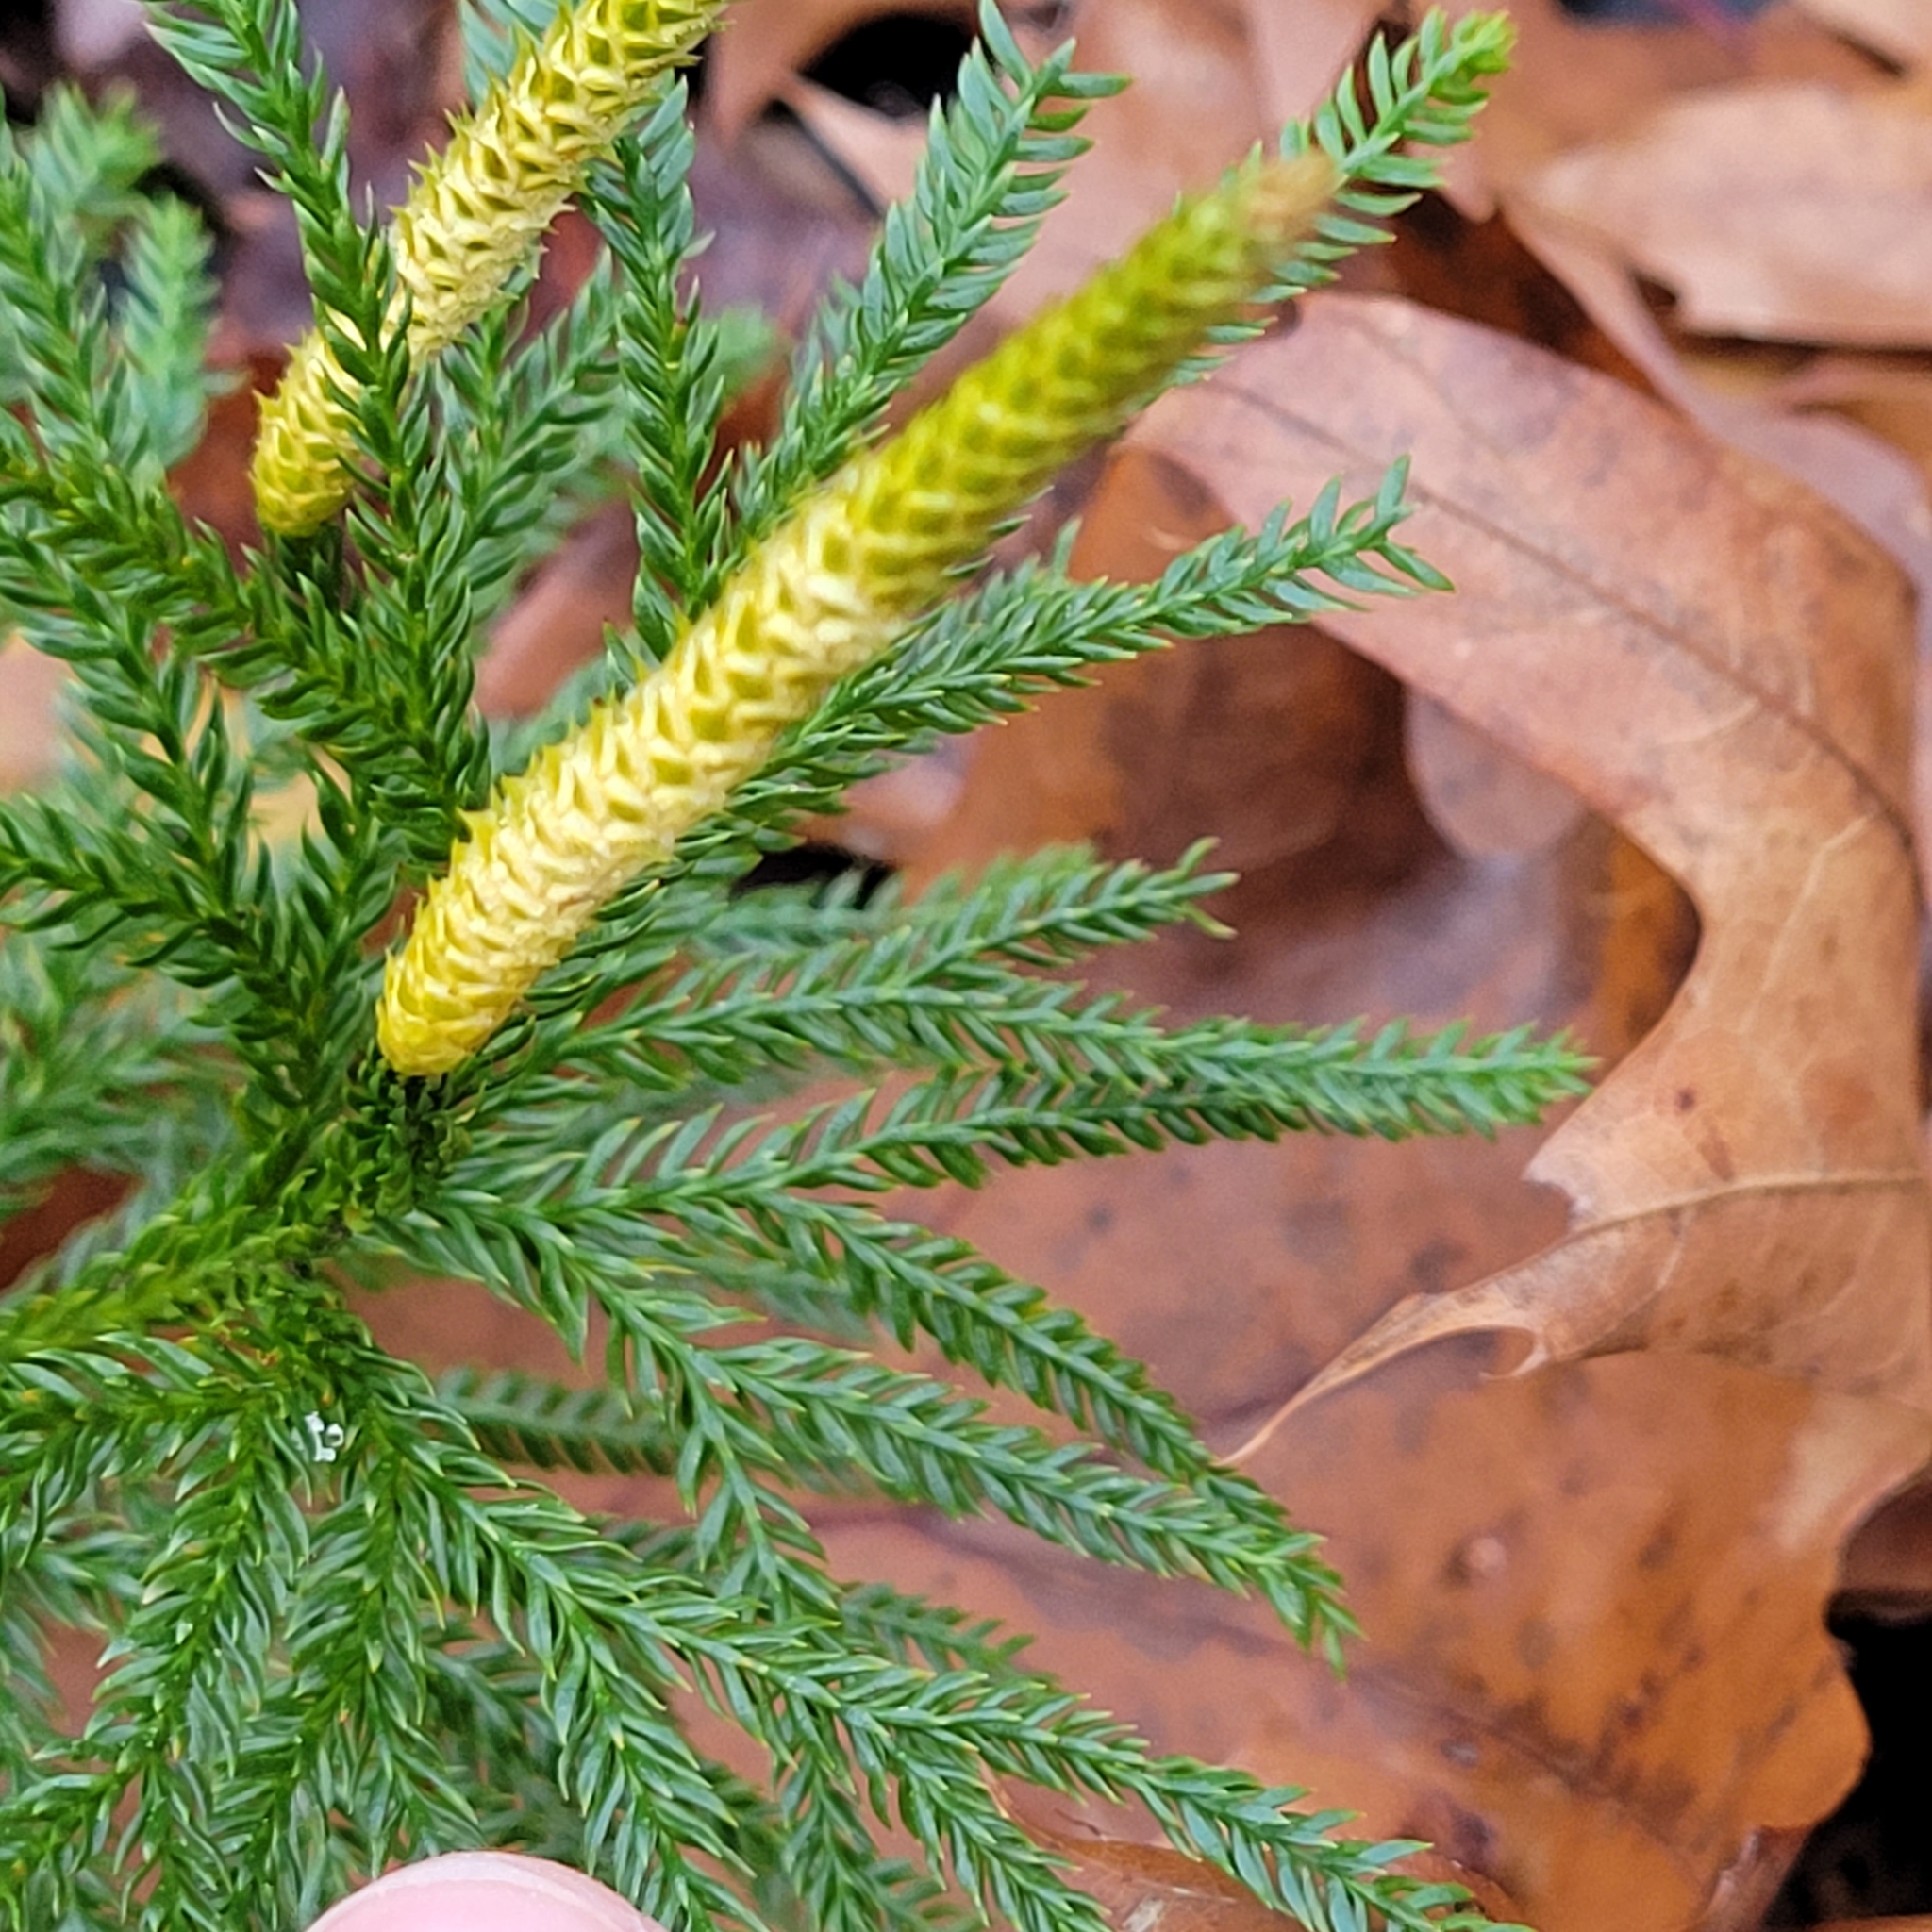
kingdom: Plantae
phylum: Tracheophyta
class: Lycopodiopsida
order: Lycopodiales
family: Lycopodiaceae
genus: Dendrolycopodium
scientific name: Dendrolycopodium obscurum
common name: Common ground-pine
